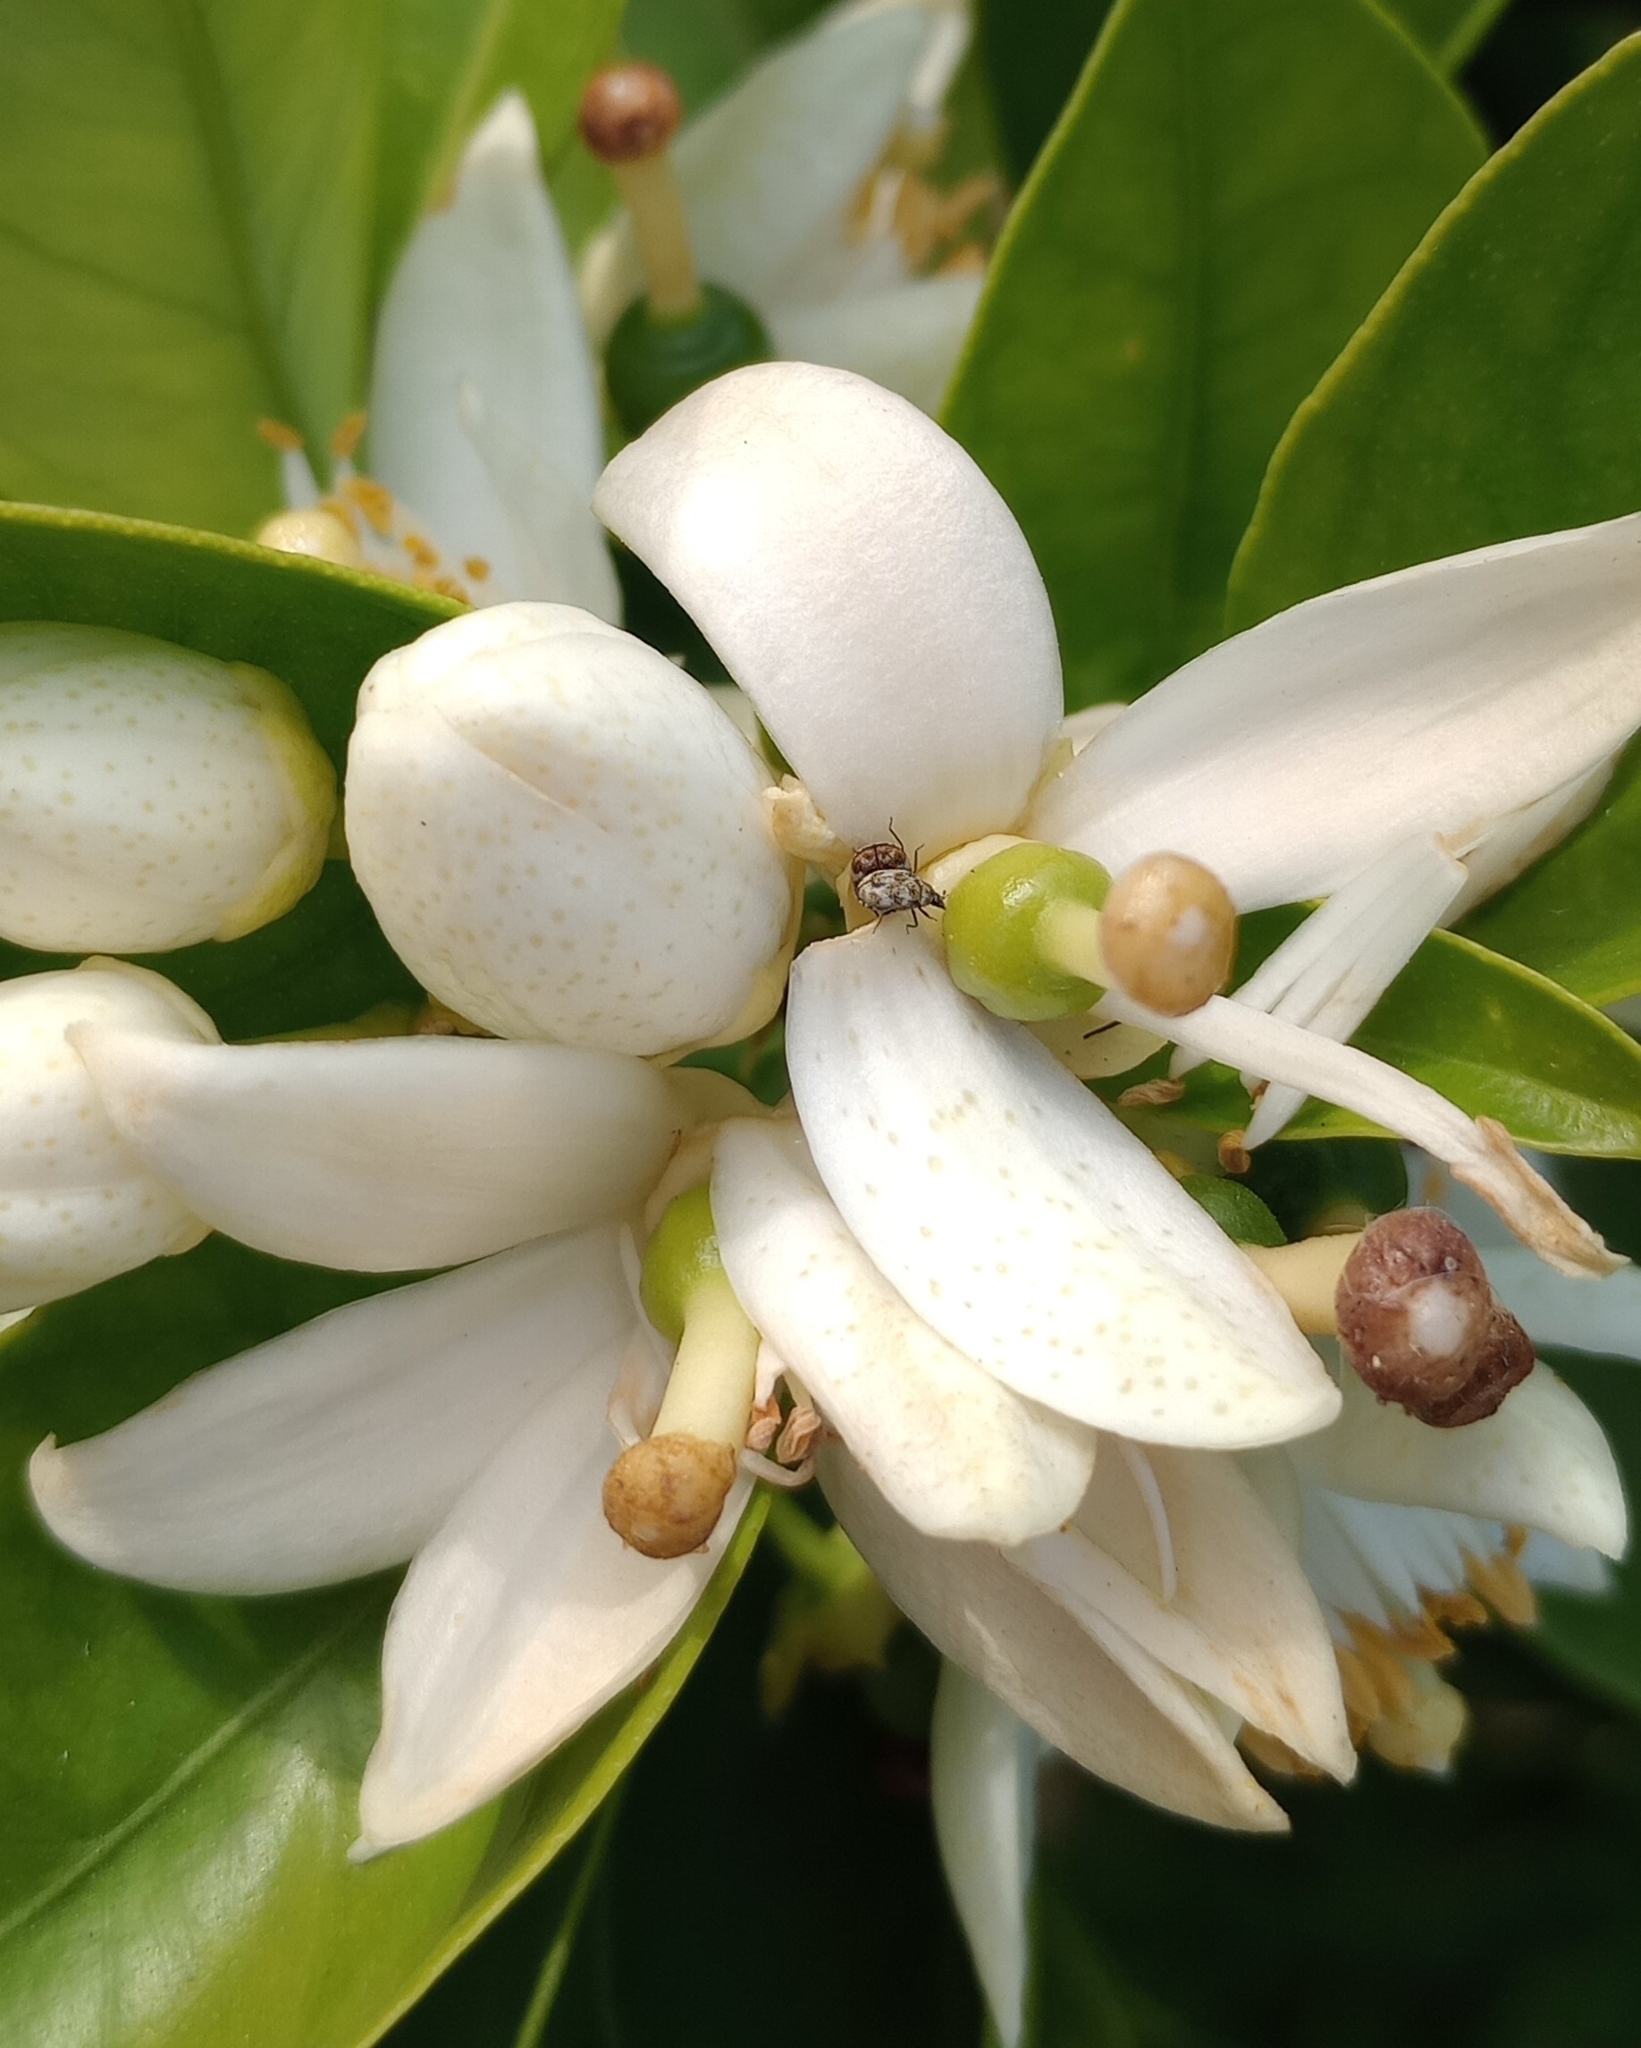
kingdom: Animalia
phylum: Arthropoda
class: Insecta
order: Coleoptera
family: Dermestidae
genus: Anthrenus
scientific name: Anthrenus verbasci
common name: Varied carpet beetle
